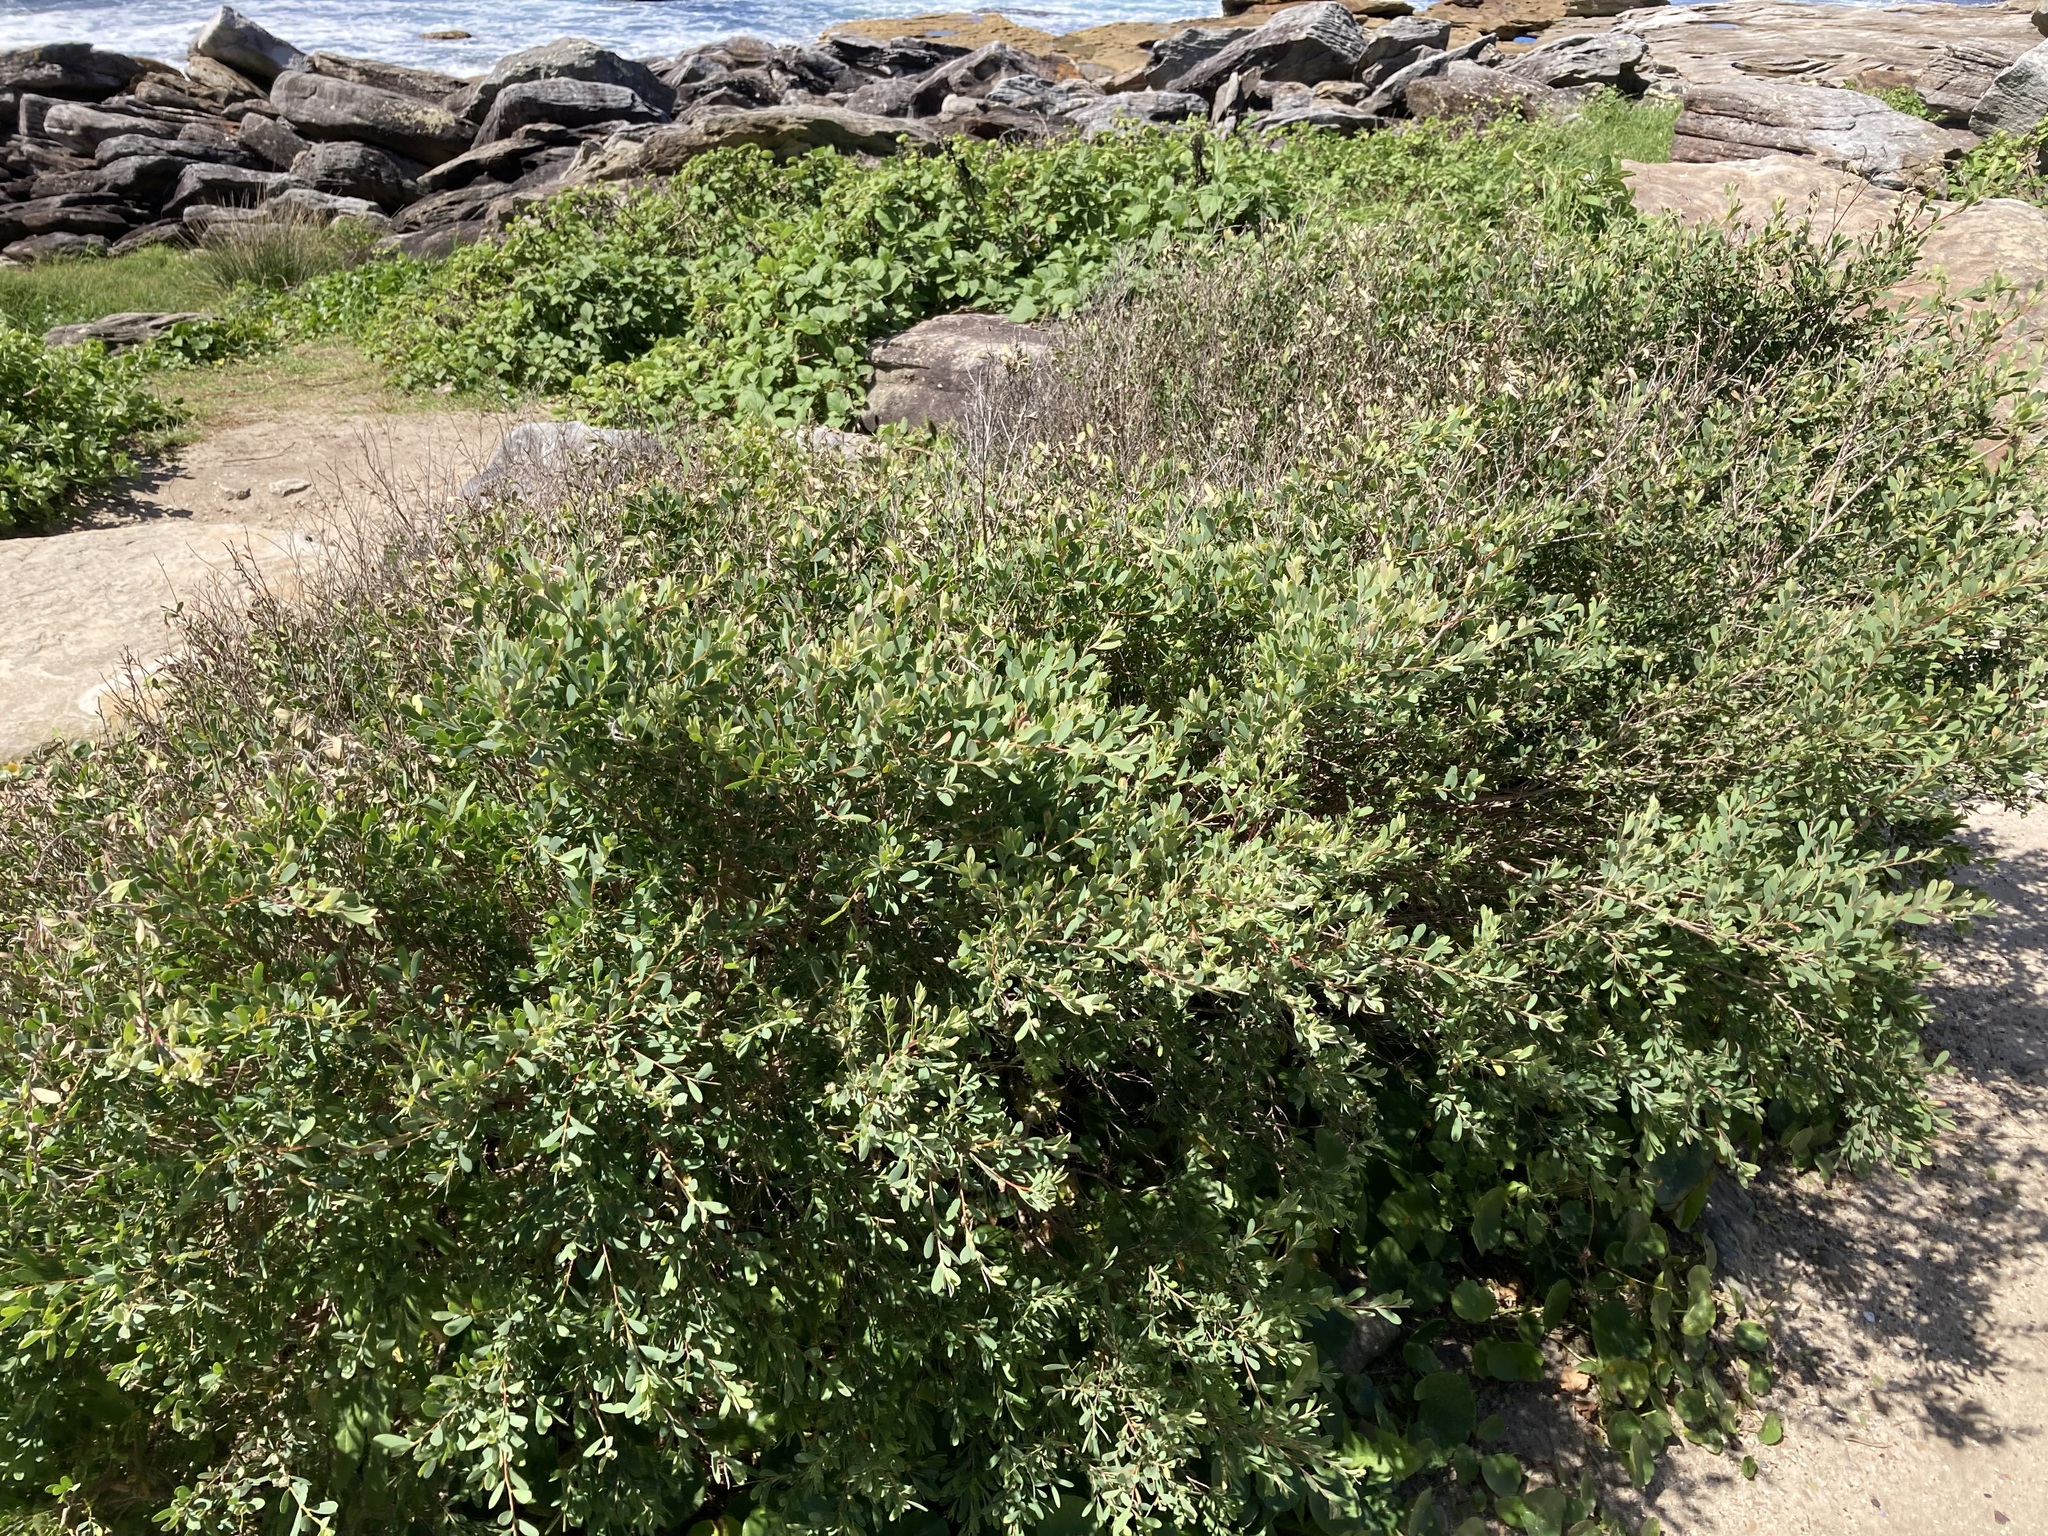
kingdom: Plantae
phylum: Tracheophyta
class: Magnoliopsida
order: Myrtales
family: Myrtaceae
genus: Leptospermum
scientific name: Leptospermum laevigatum
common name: Australian teatree
